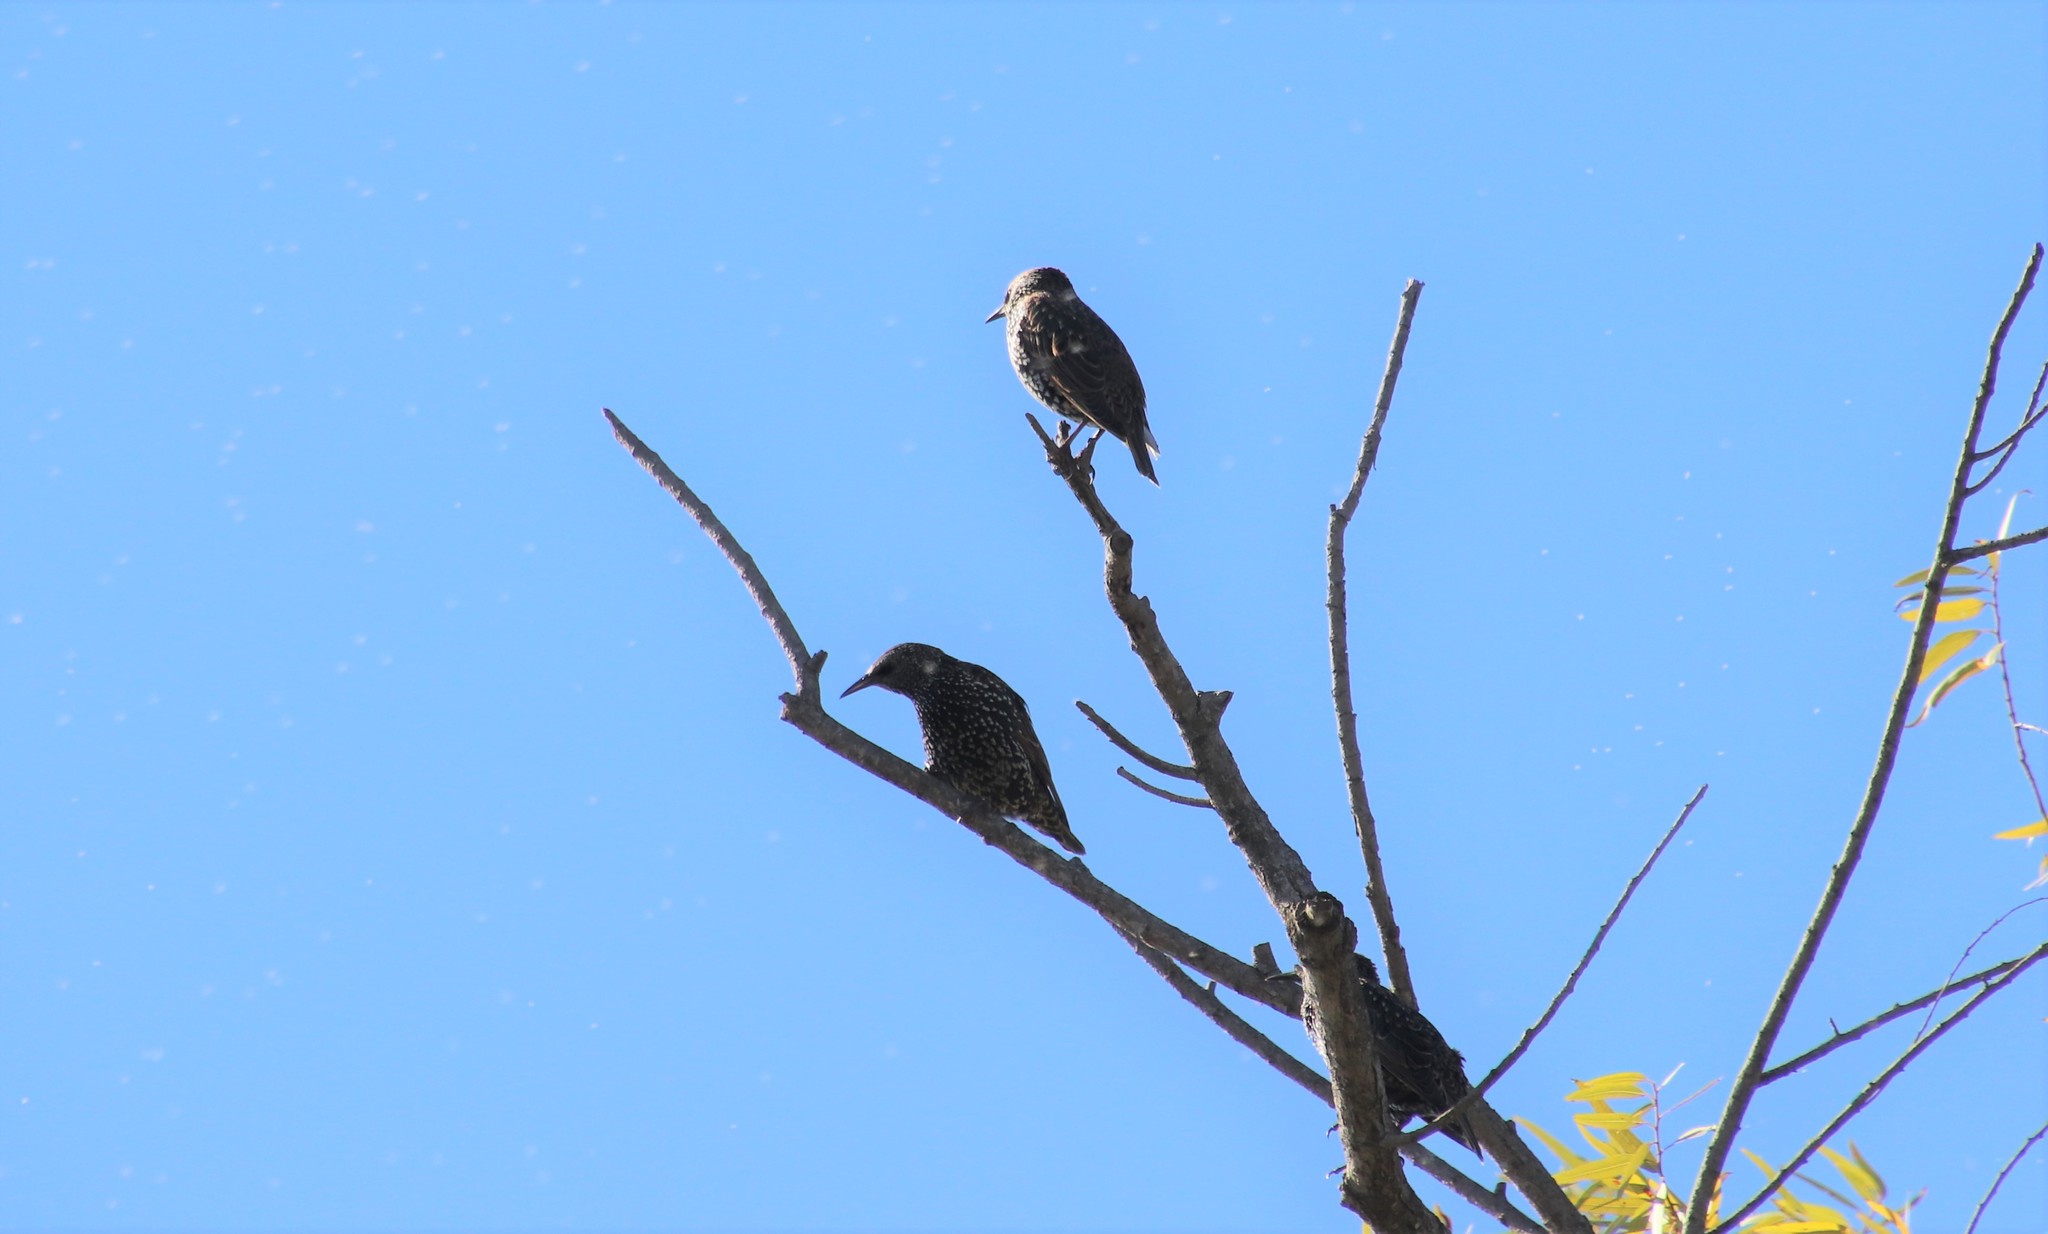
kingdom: Animalia
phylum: Chordata
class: Aves
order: Passeriformes
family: Sturnidae
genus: Sturnus
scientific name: Sturnus vulgaris
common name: Common starling
